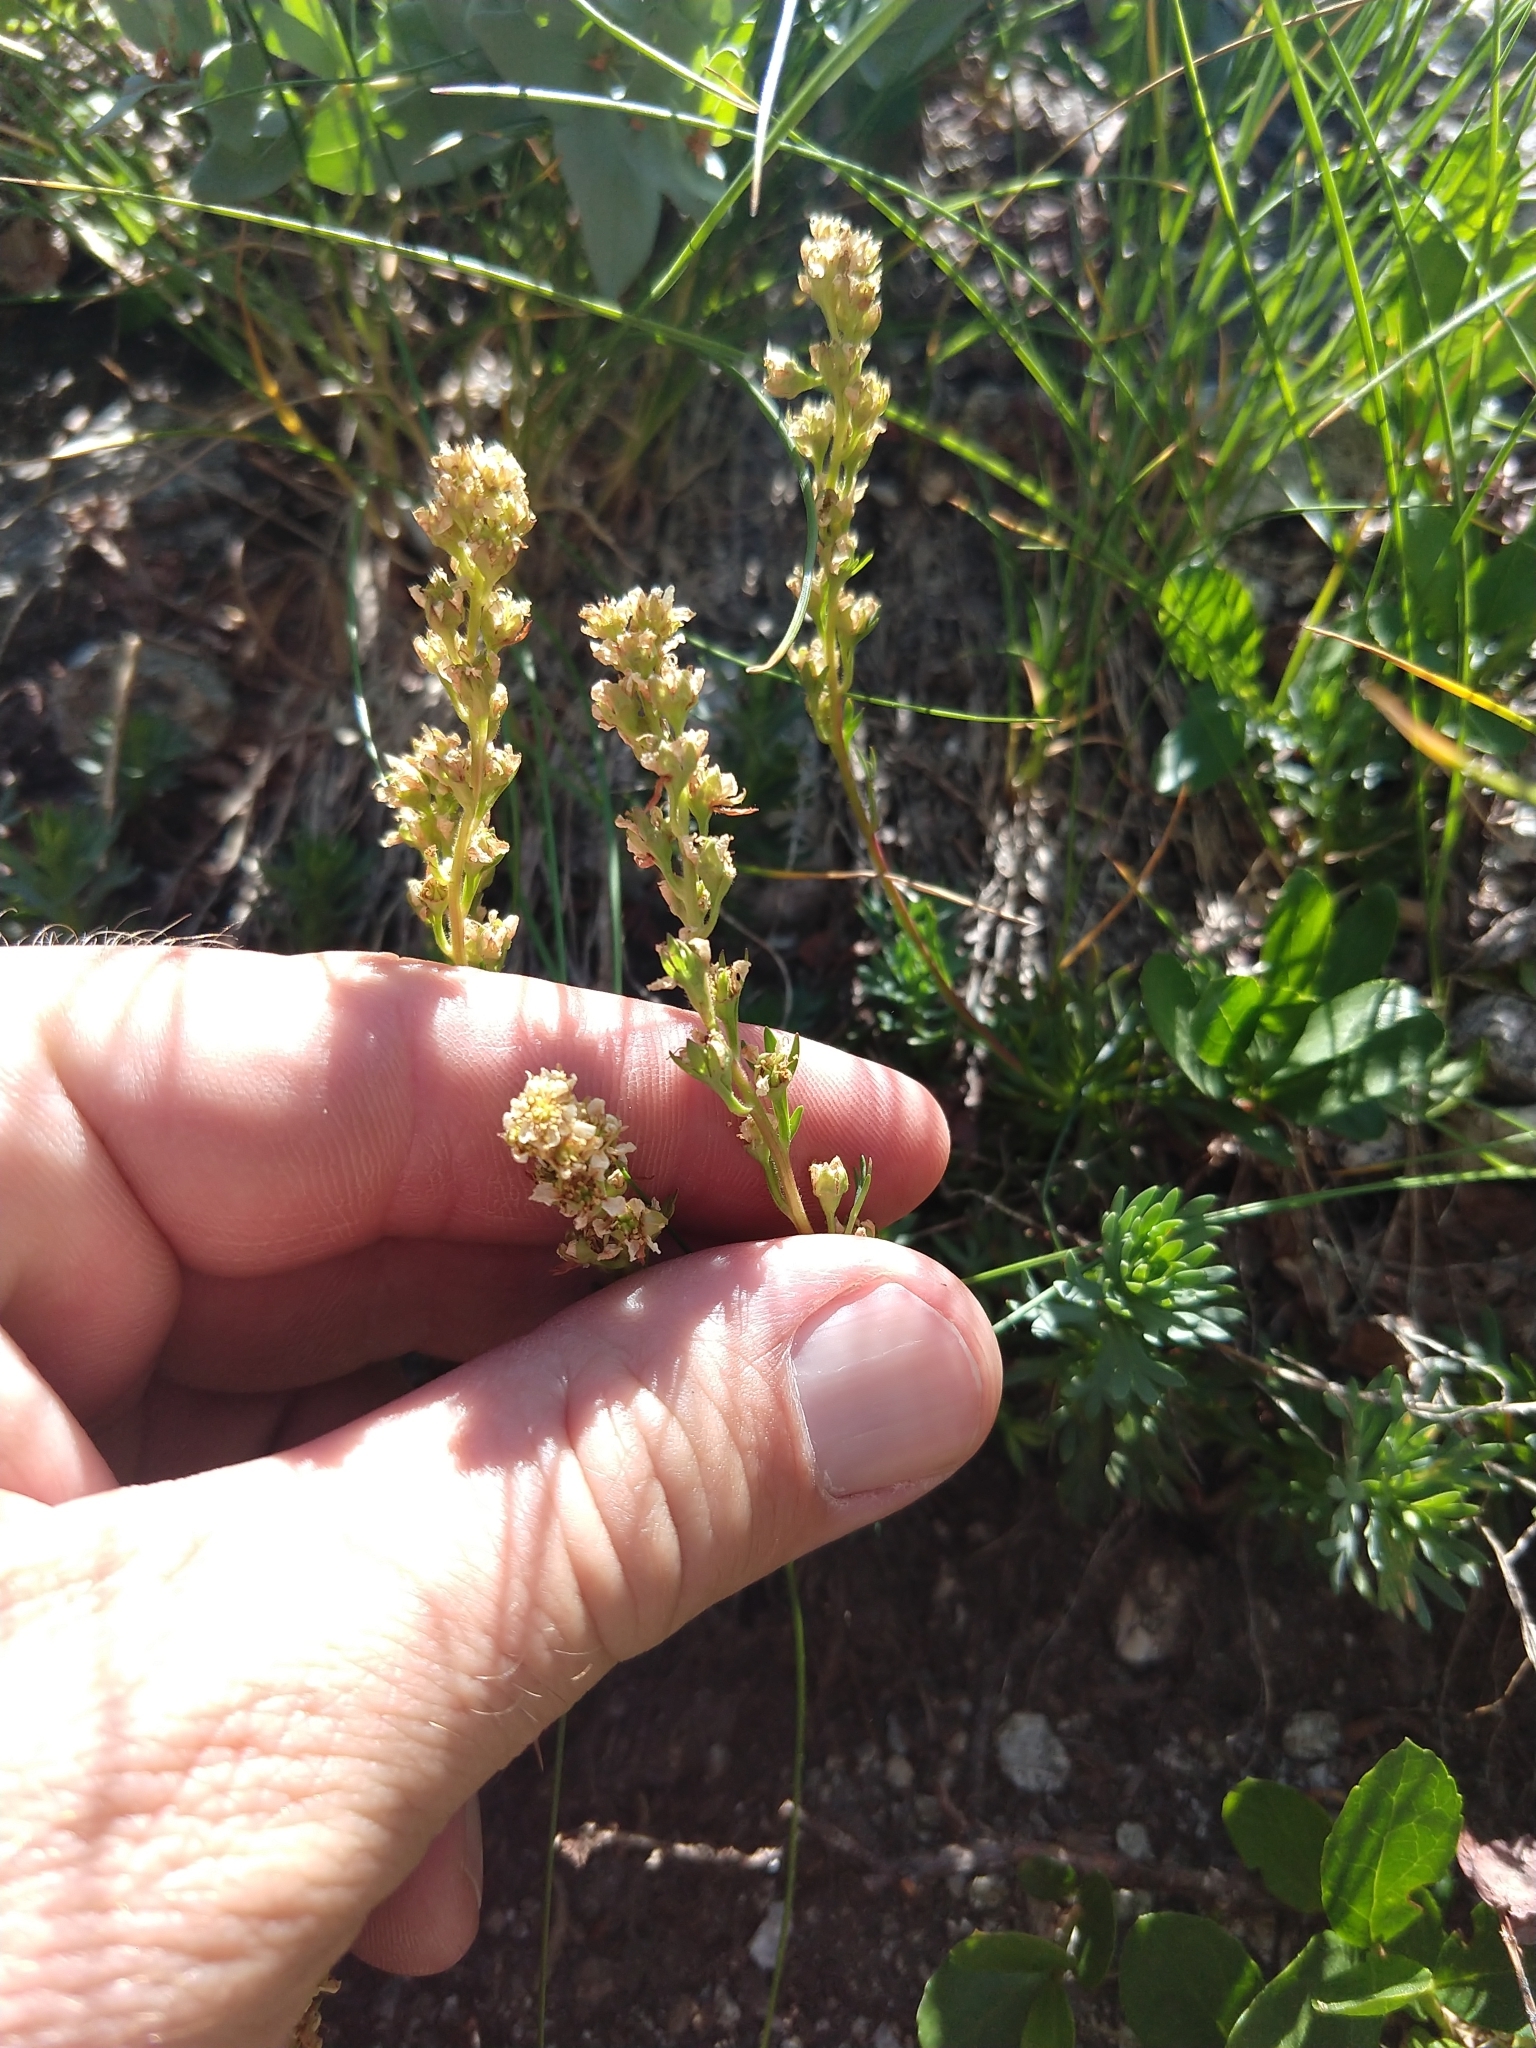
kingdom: Plantae
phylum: Tracheophyta
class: Magnoliopsida
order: Rosales
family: Rosaceae
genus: Luetkea
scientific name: Luetkea pectinata
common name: Partridgefoot
